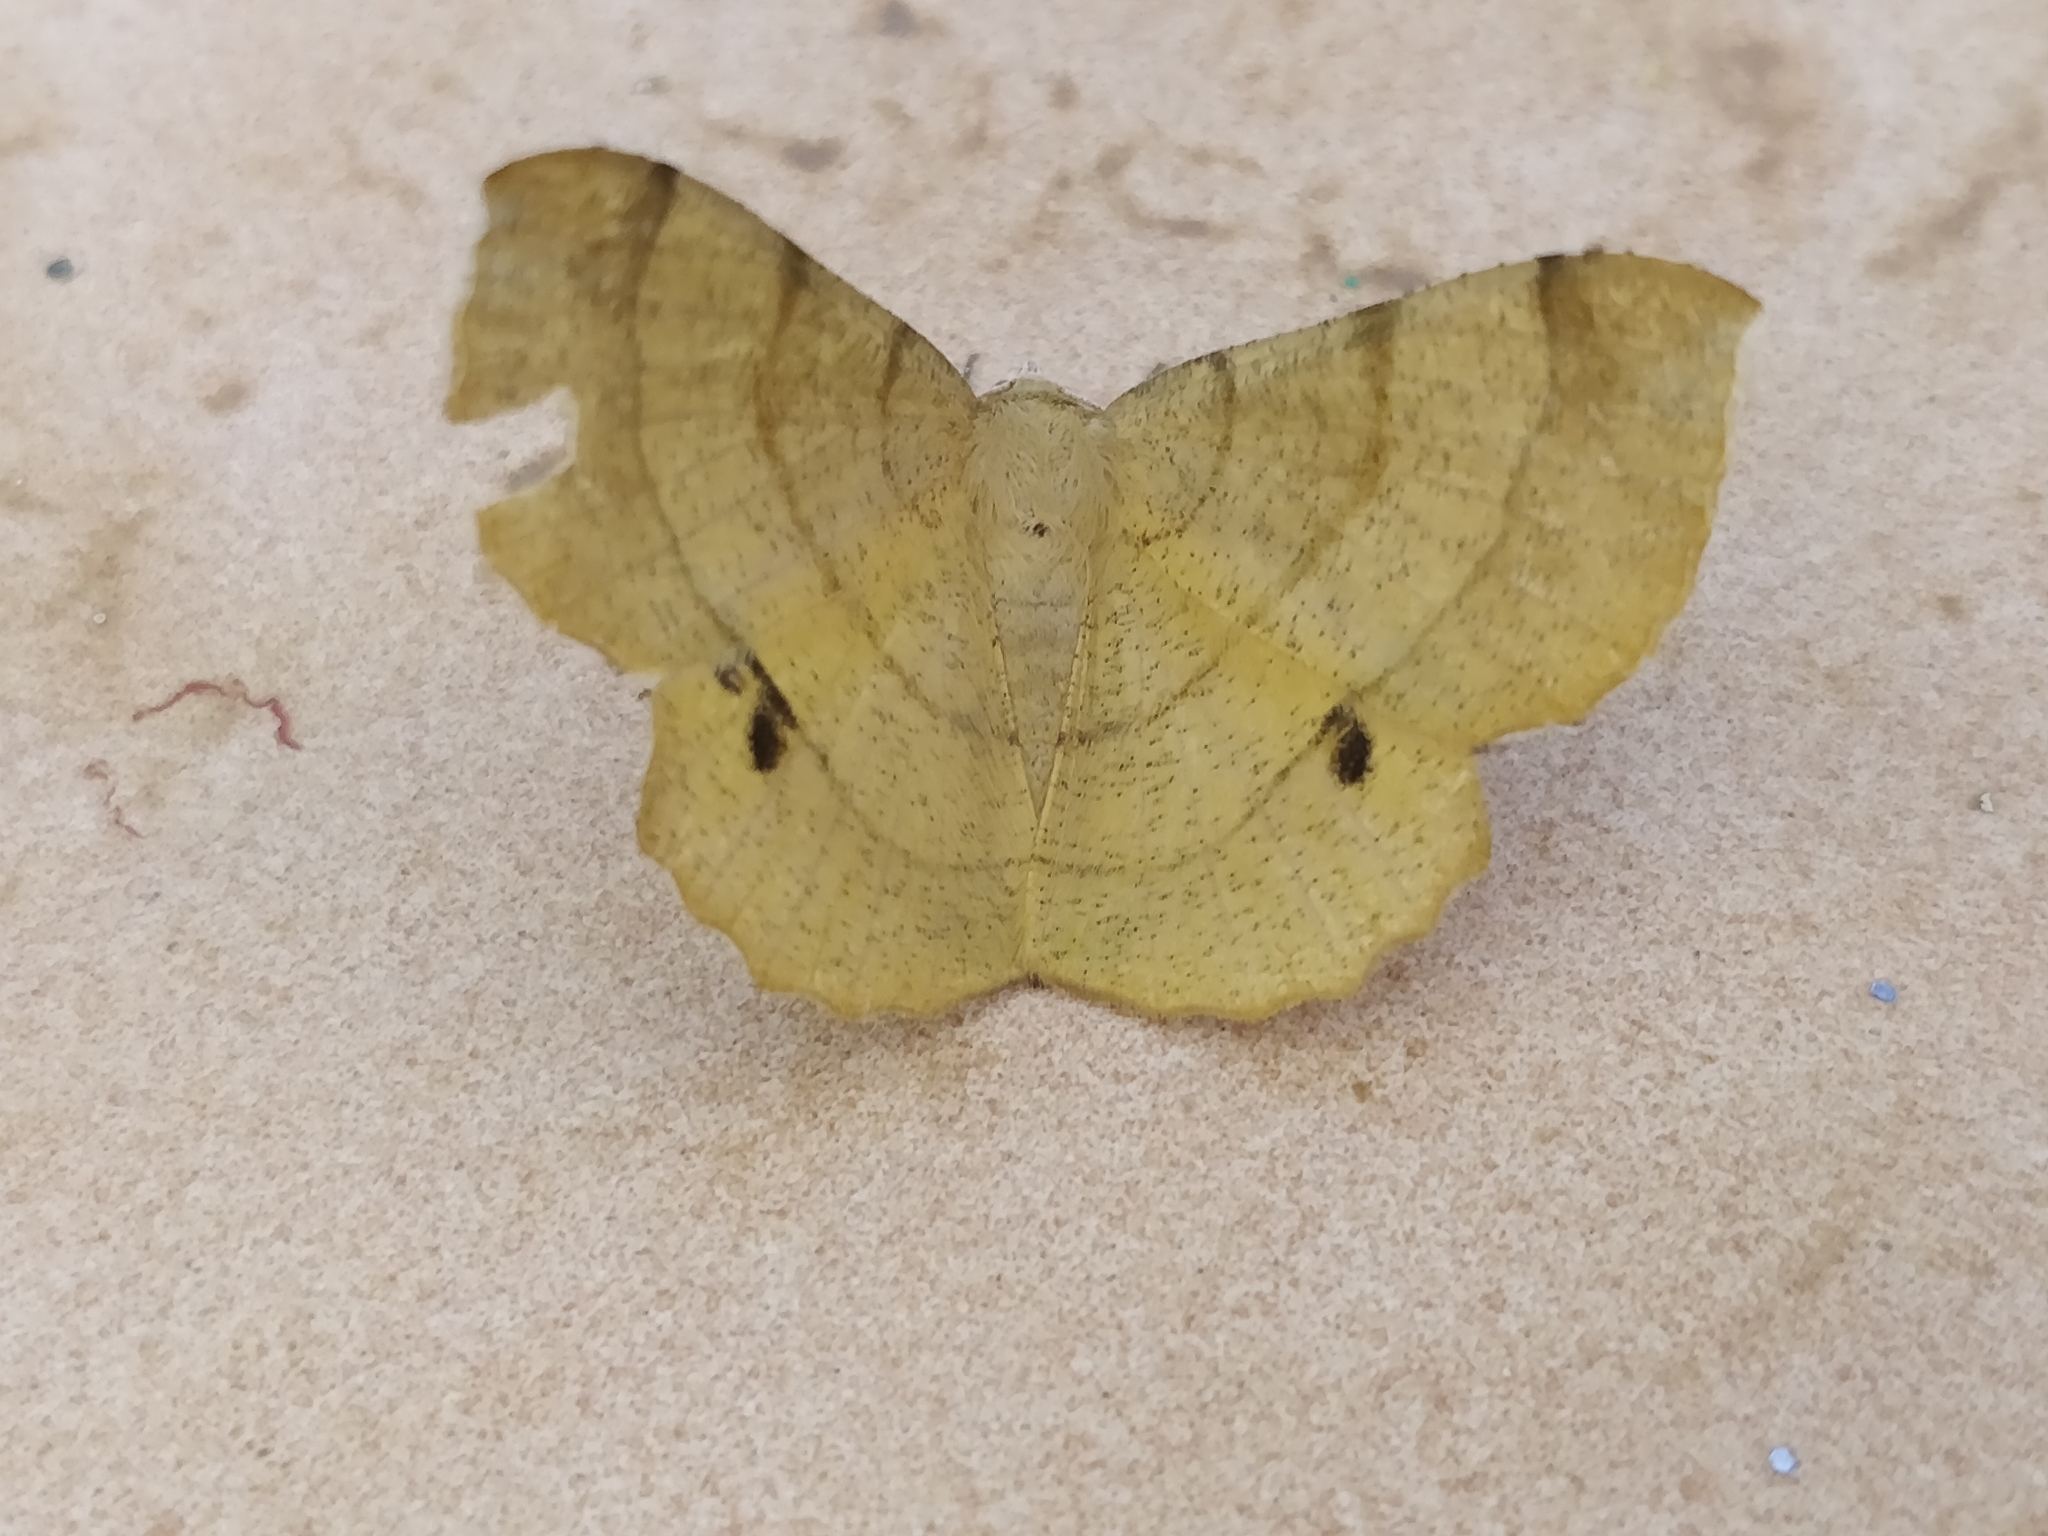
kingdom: Animalia
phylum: Arthropoda
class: Insecta
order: Lepidoptera
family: Geometridae
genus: Hyperythra
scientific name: Hyperythra lutea
